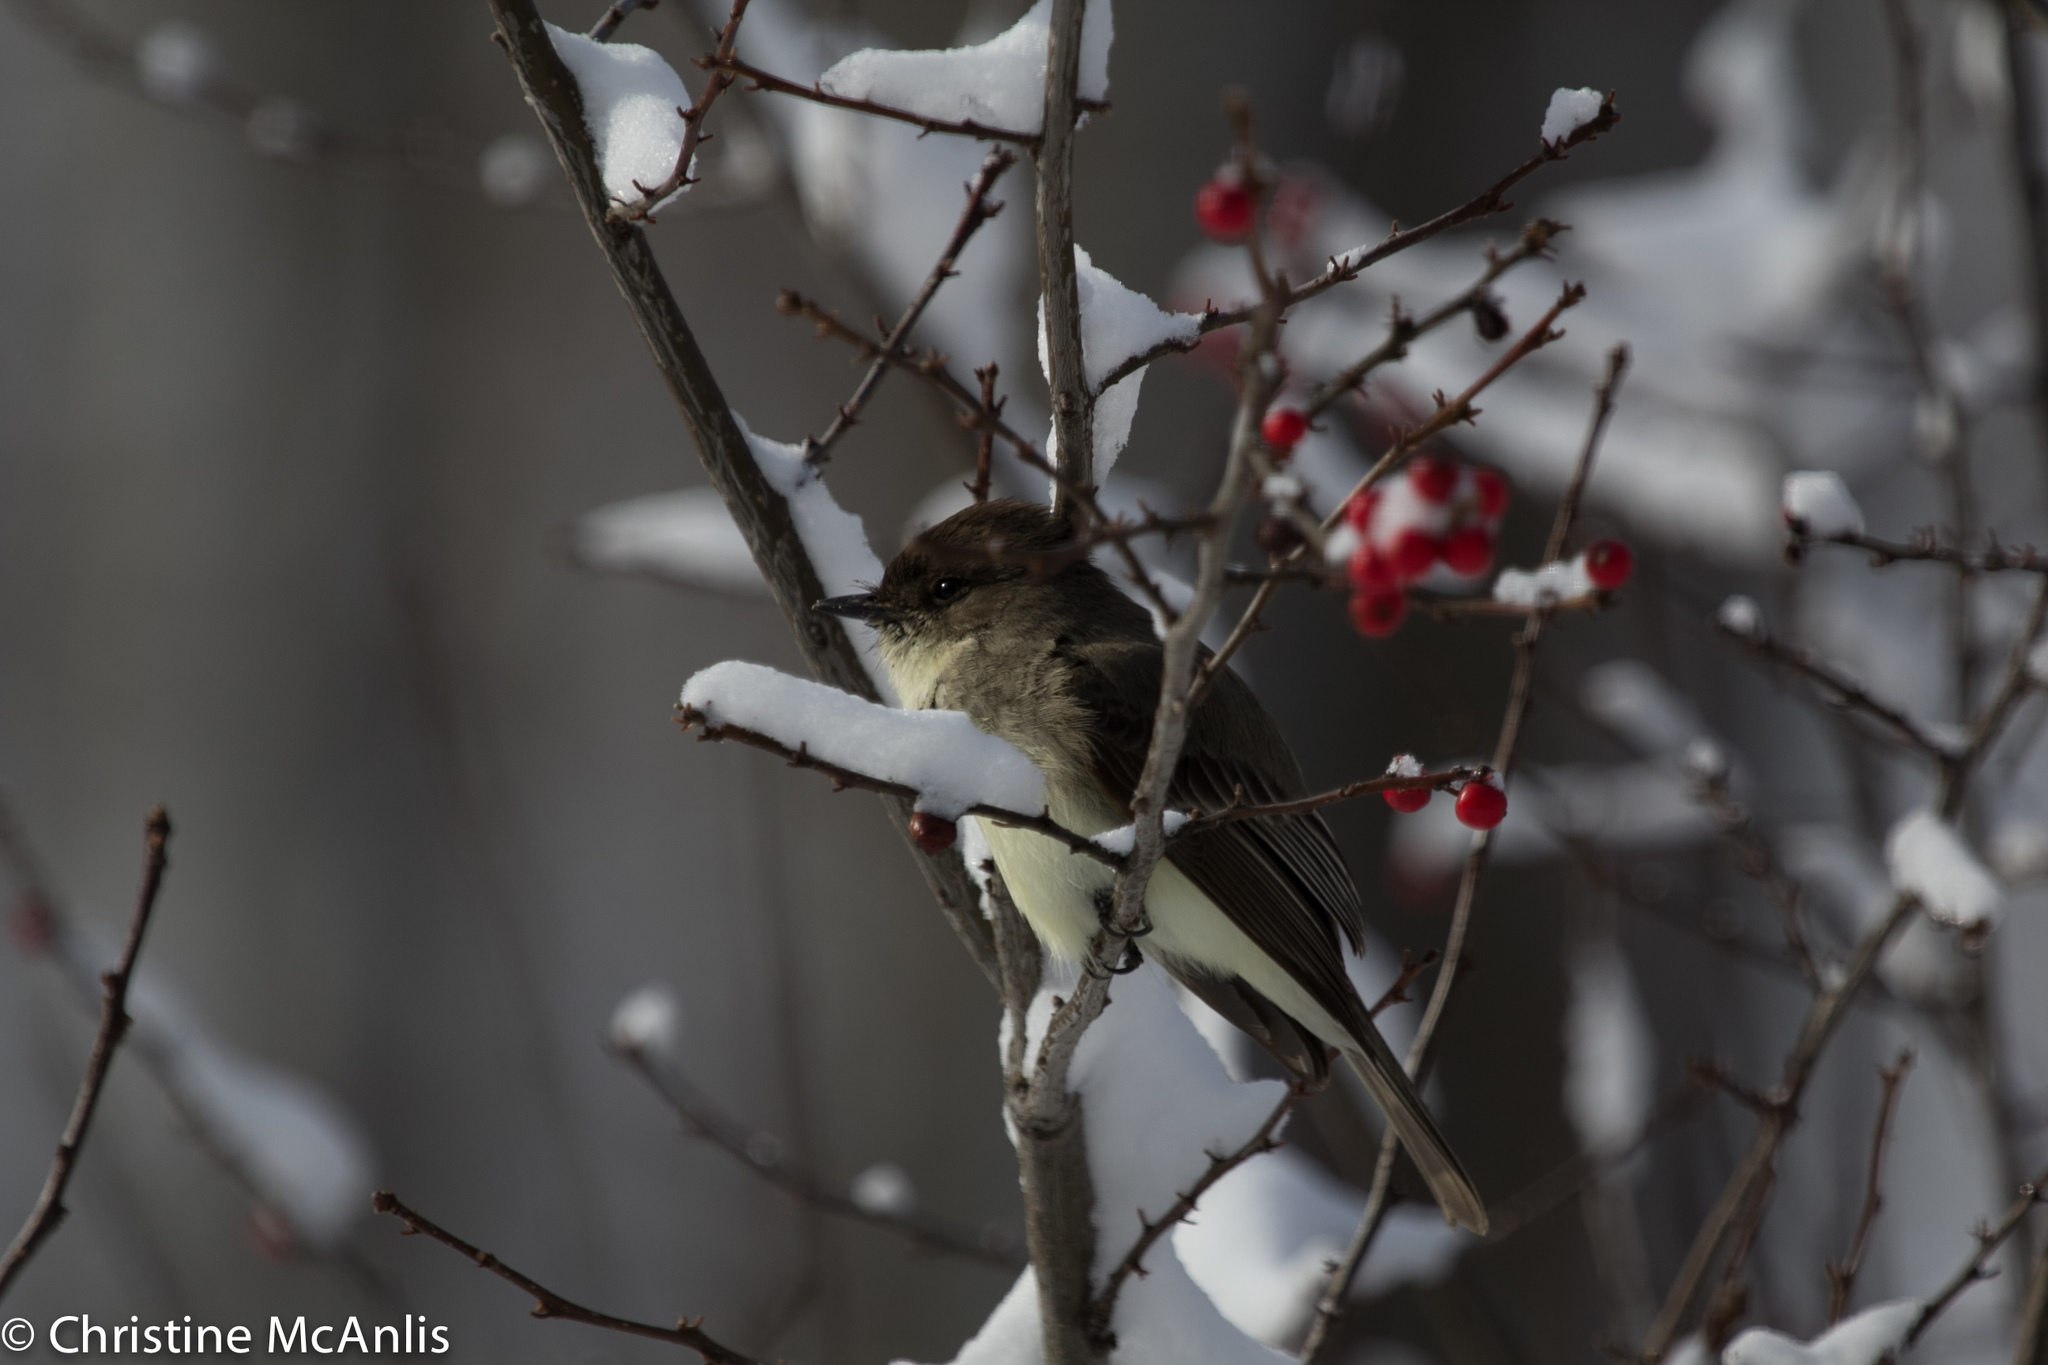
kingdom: Animalia
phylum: Chordata
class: Aves
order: Passeriformes
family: Tyrannidae
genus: Sayornis
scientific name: Sayornis phoebe
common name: Eastern phoebe
